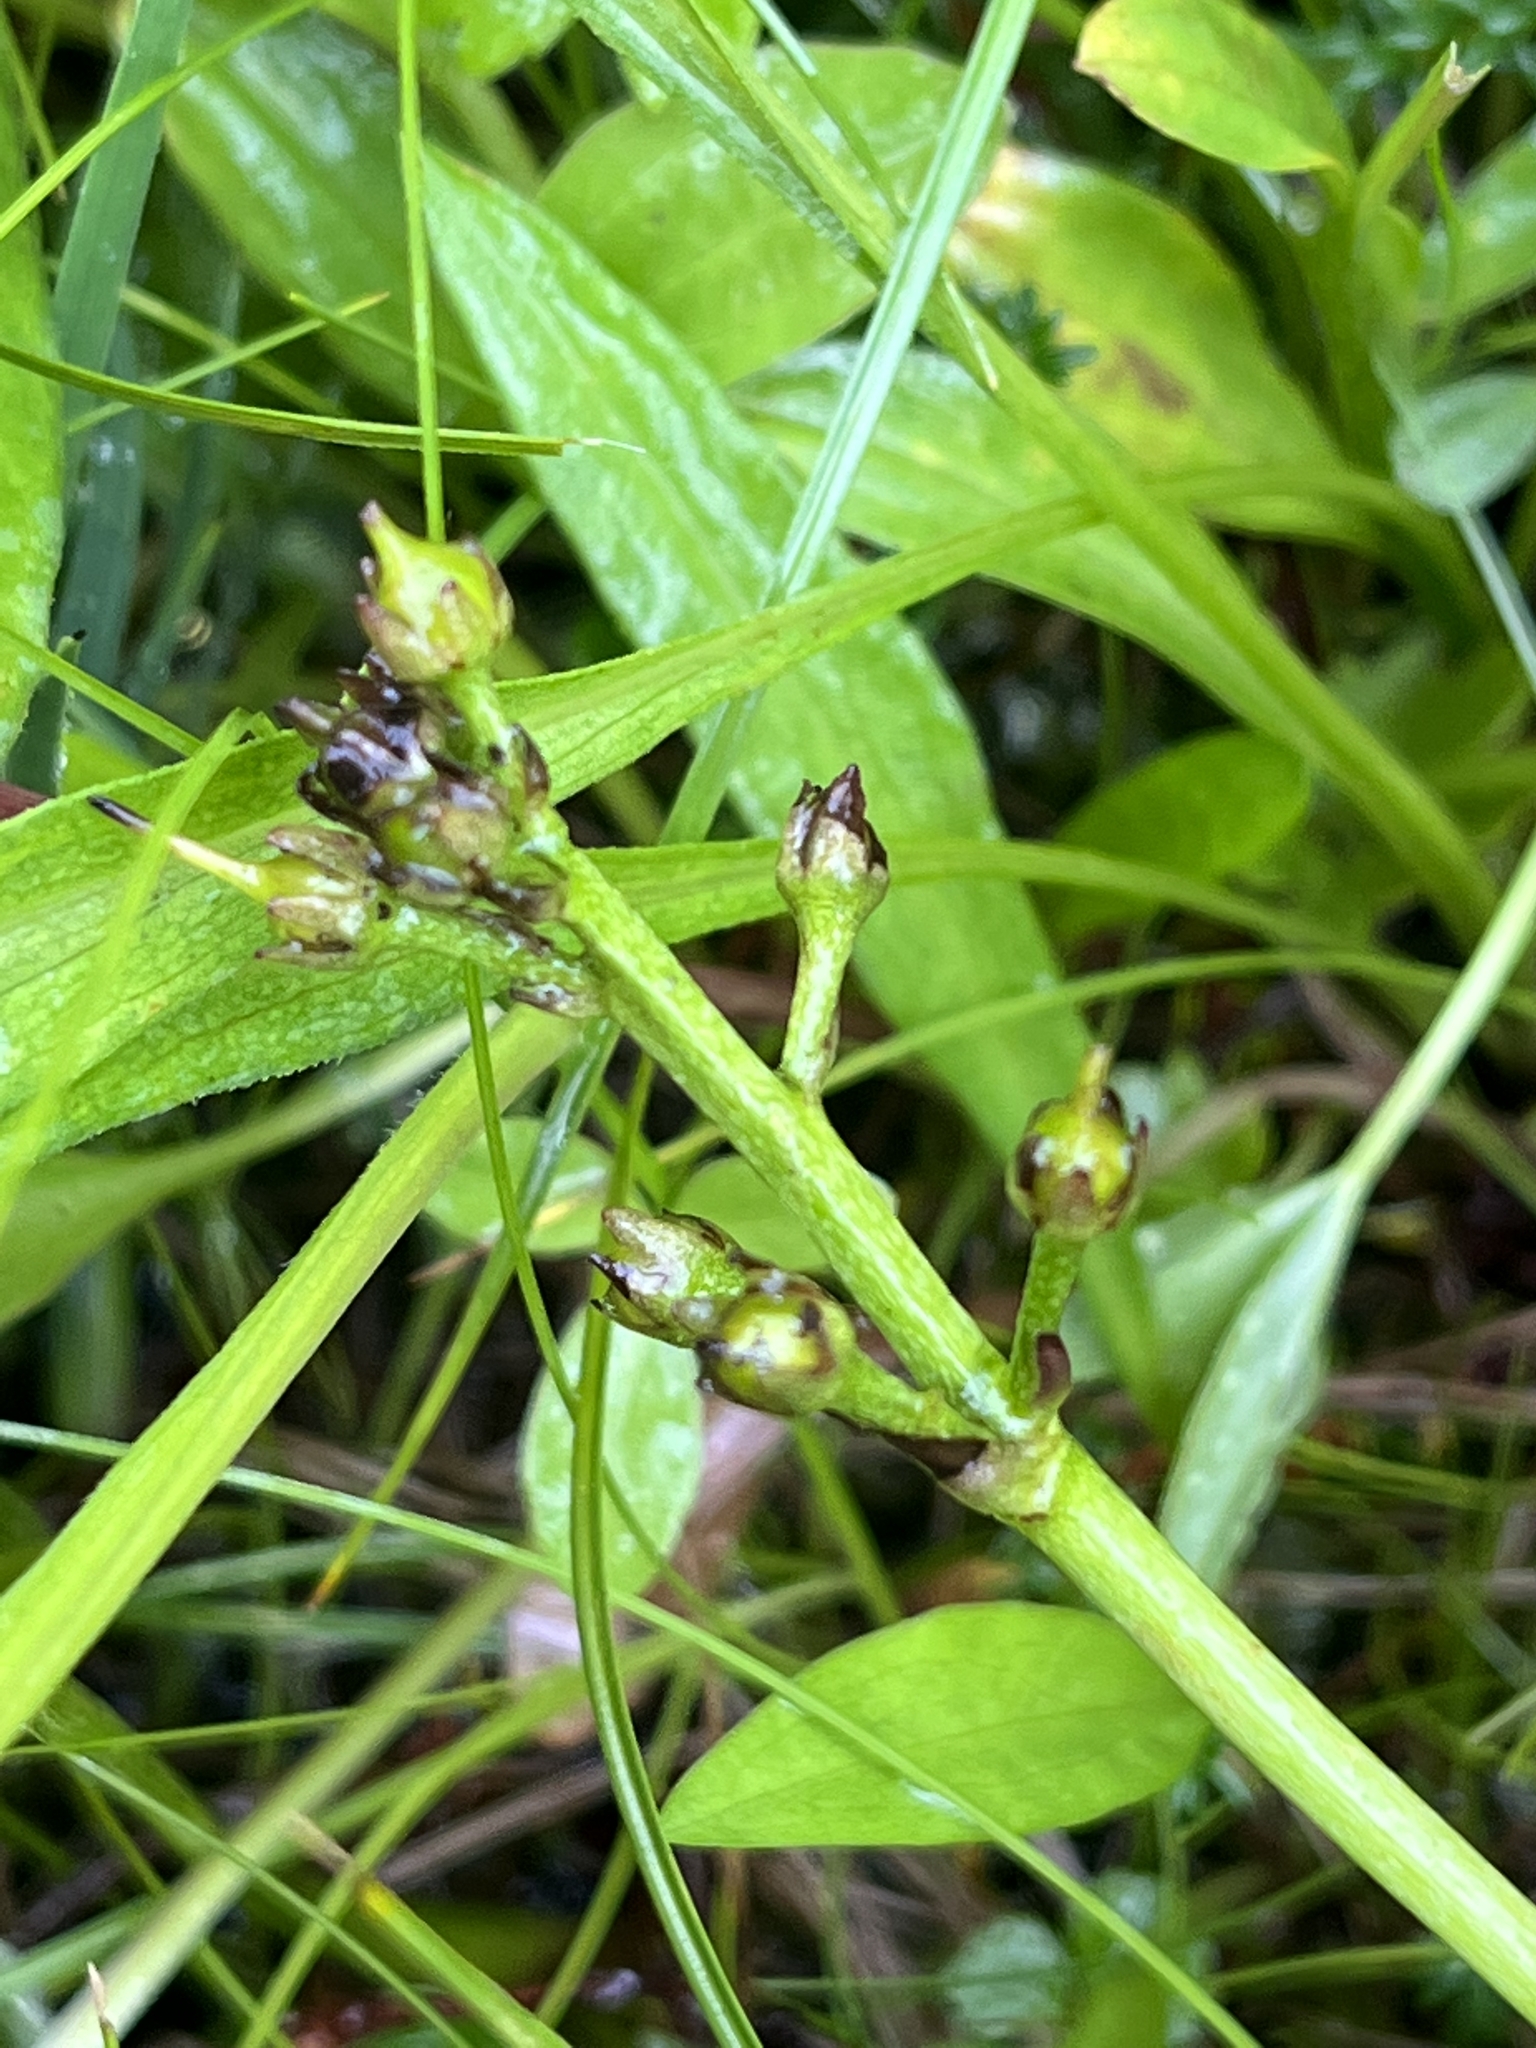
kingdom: Plantae
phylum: Tracheophyta
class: Magnoliopsida
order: Asterales
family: Menyanthaceae
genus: Menyanthes
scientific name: Menyanthes trifoliata
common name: Bogbean
